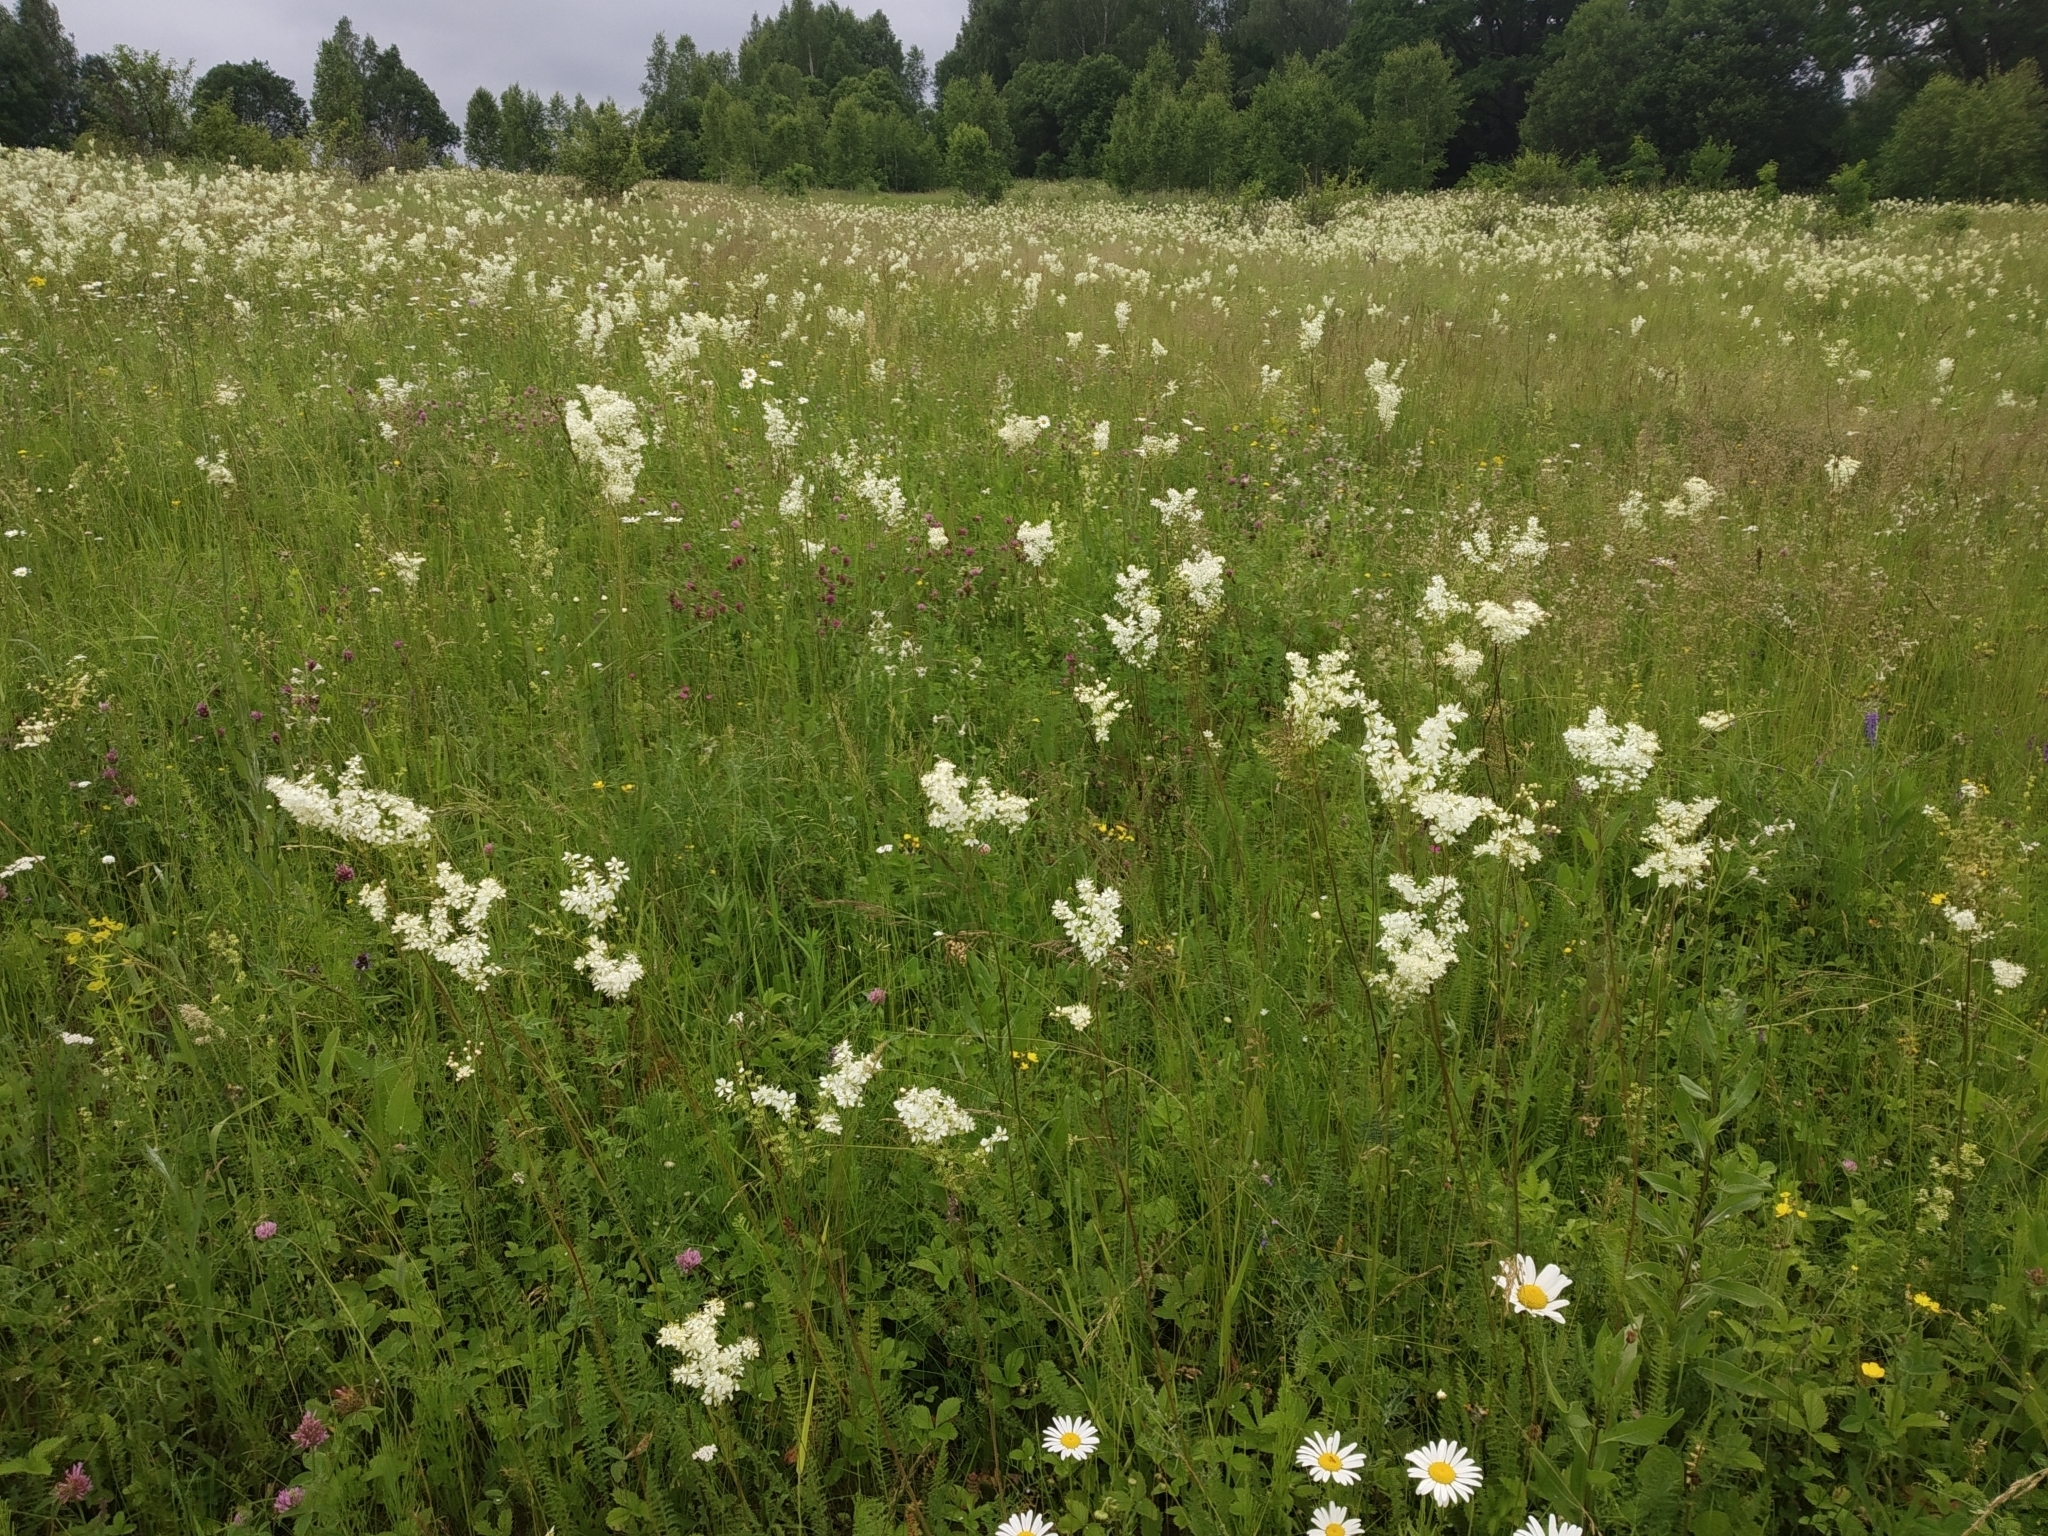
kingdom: Plantae
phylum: Tracheophyta
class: Magnoliopsida
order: Rosales
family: Rosaceae
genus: Filipendula
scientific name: Filipendula vulgaris
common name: Dropwort
